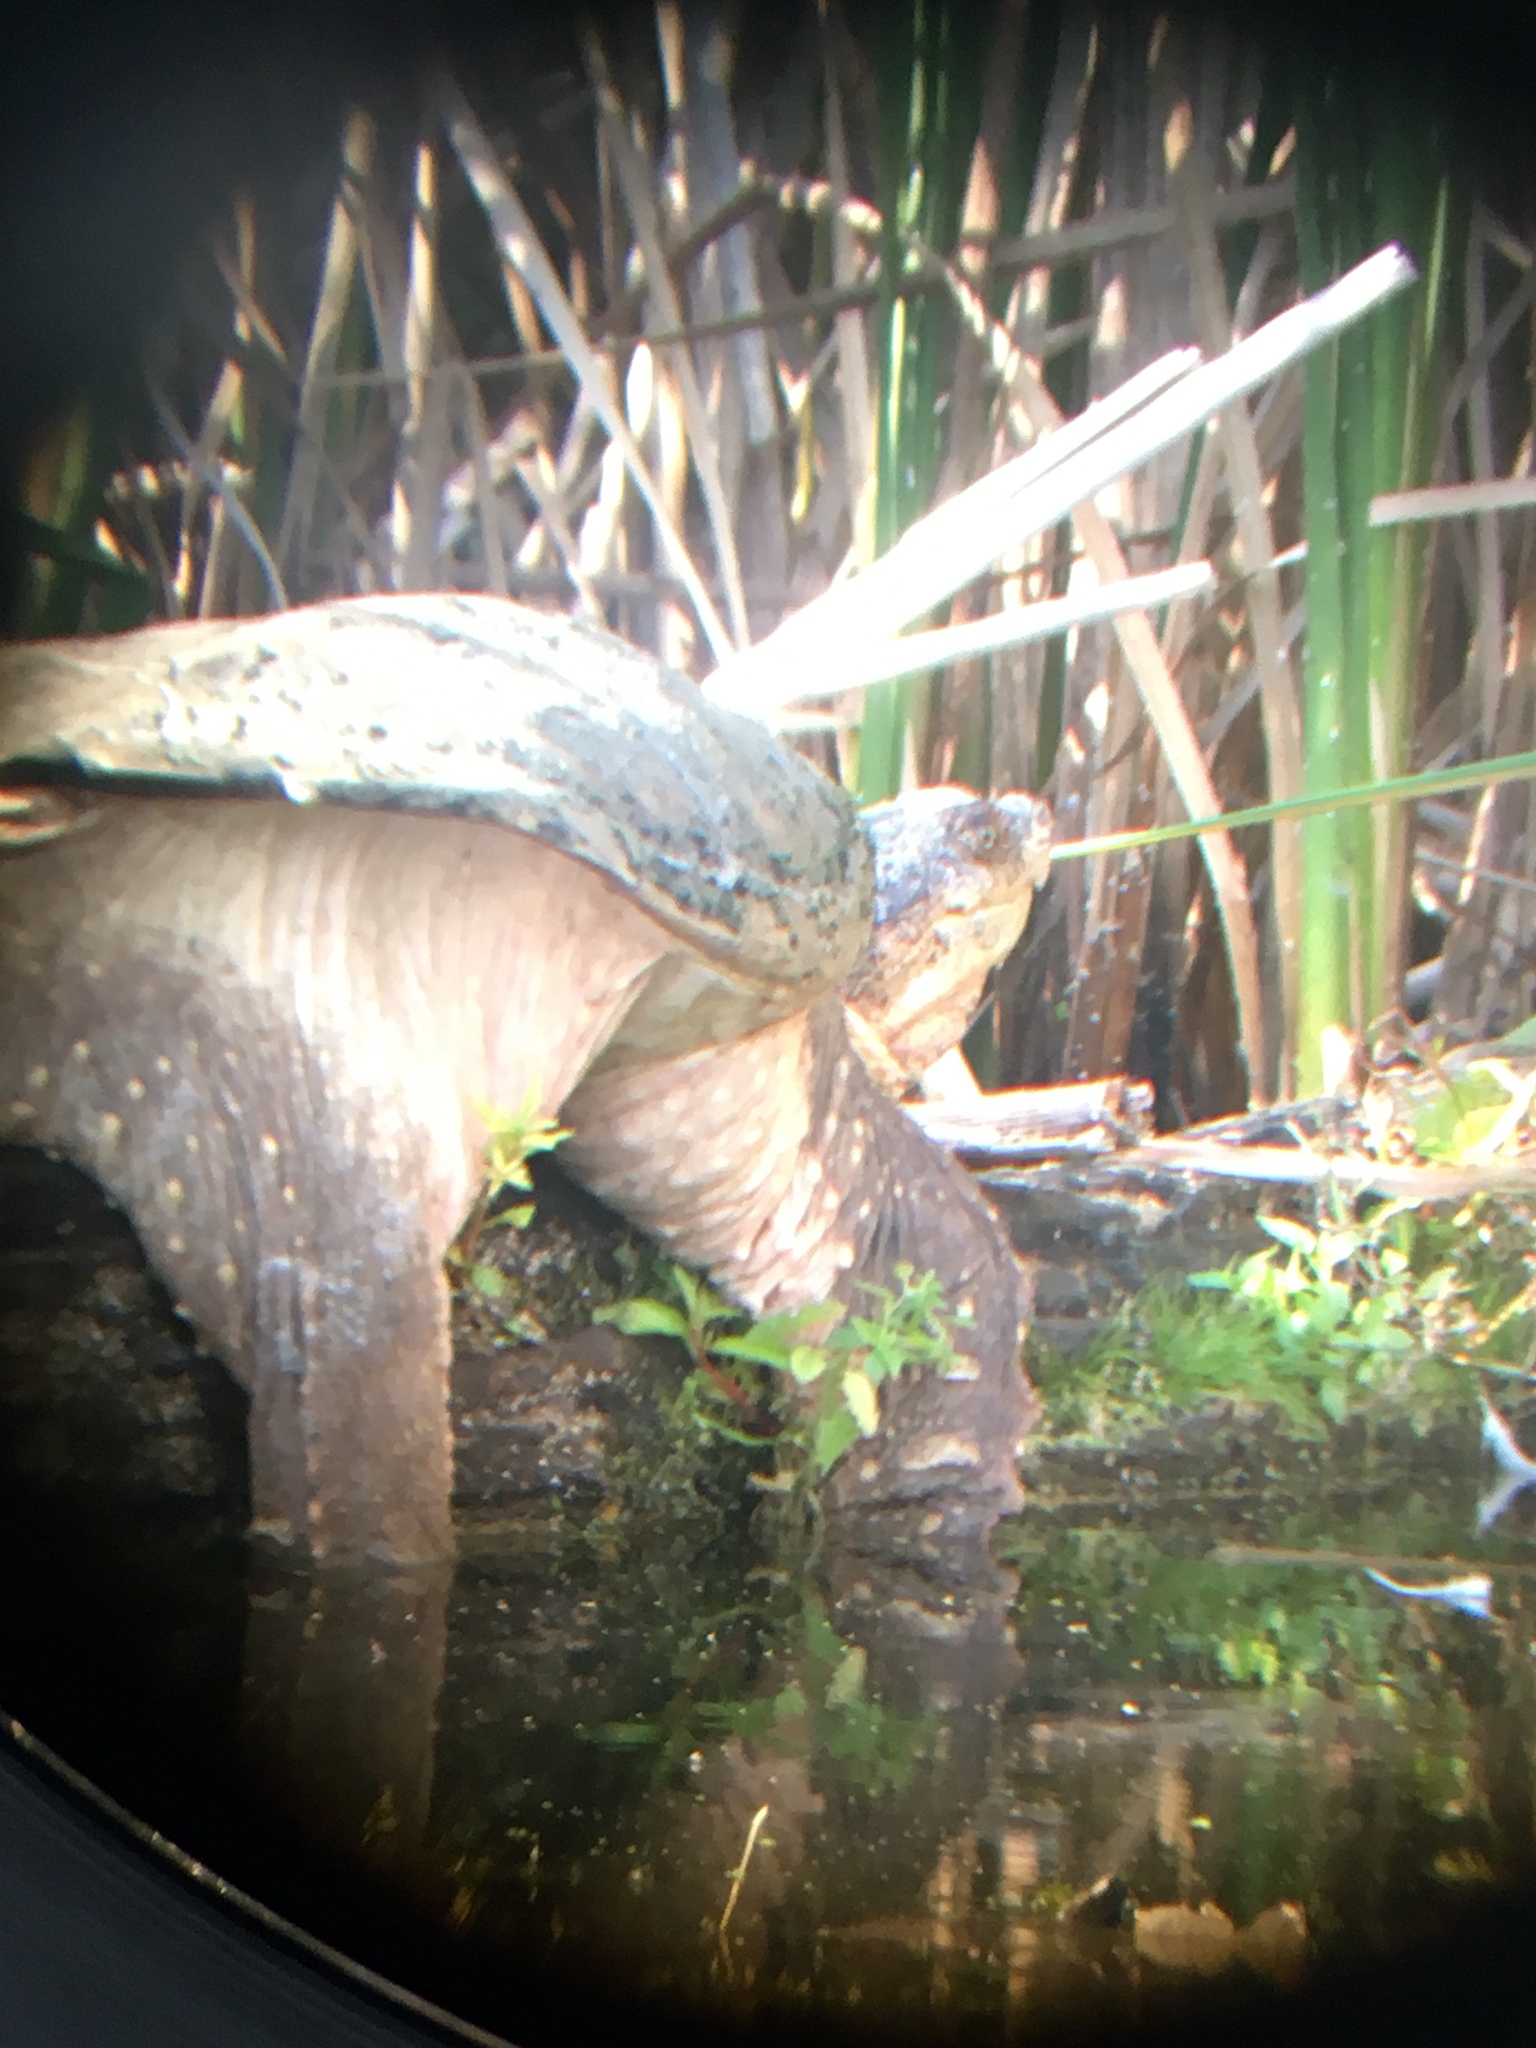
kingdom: Animalia
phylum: Chordata
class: Testudines
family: Chelydridae
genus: Chelydra
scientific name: Chelydra serpentina
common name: Common snapping turtle
